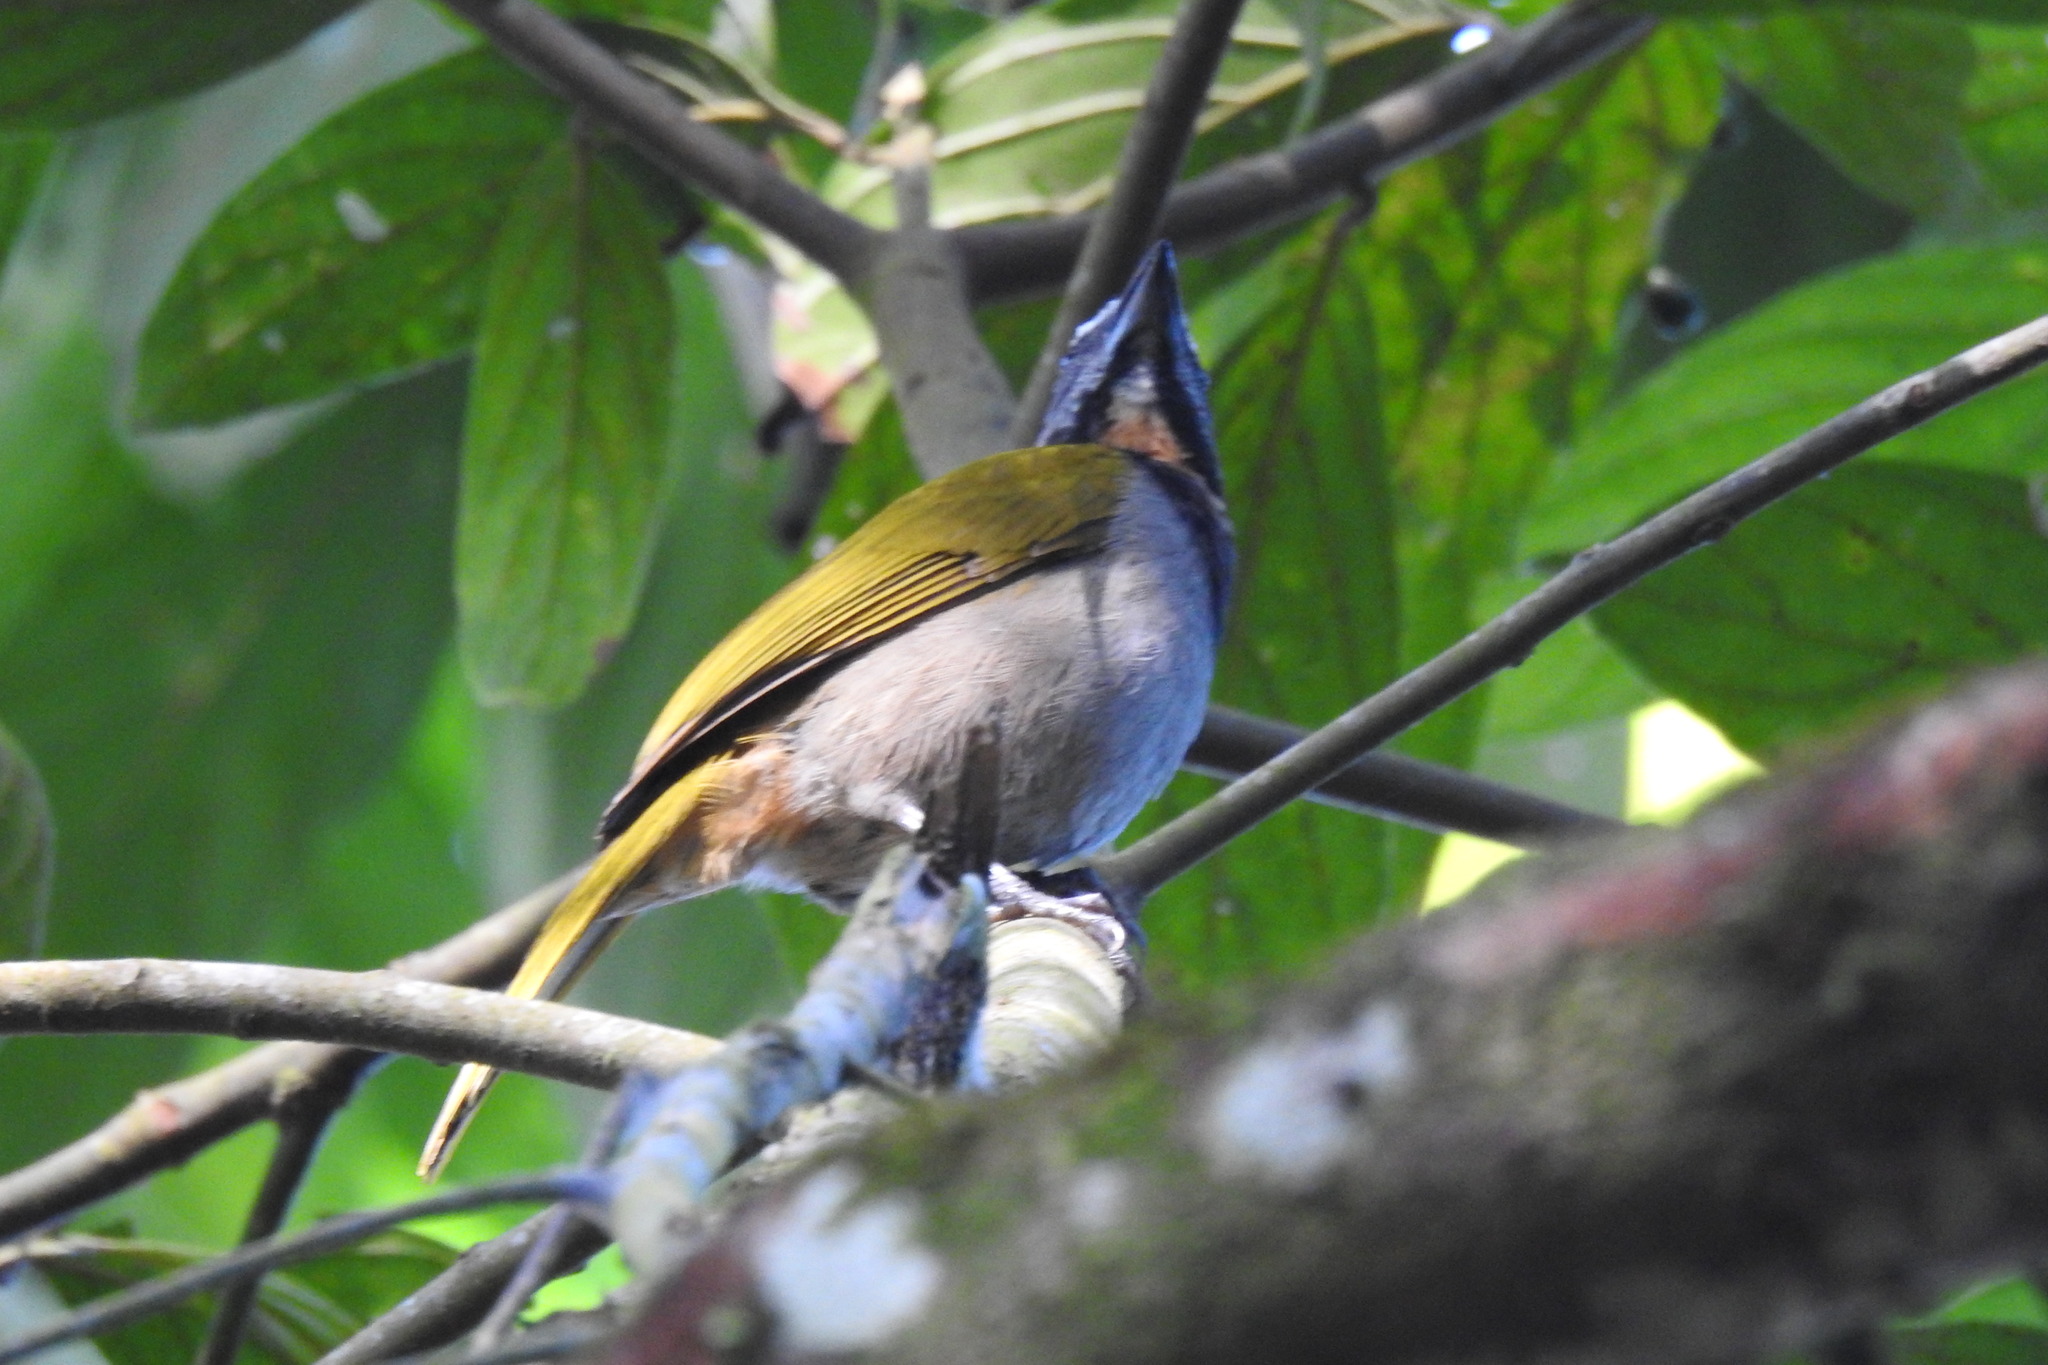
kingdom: Animalia
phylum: Chordata
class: Aves
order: Passeriformes
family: Thraupidae
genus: Saltator
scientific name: Saltator maximus
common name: Buff-throated saltator
